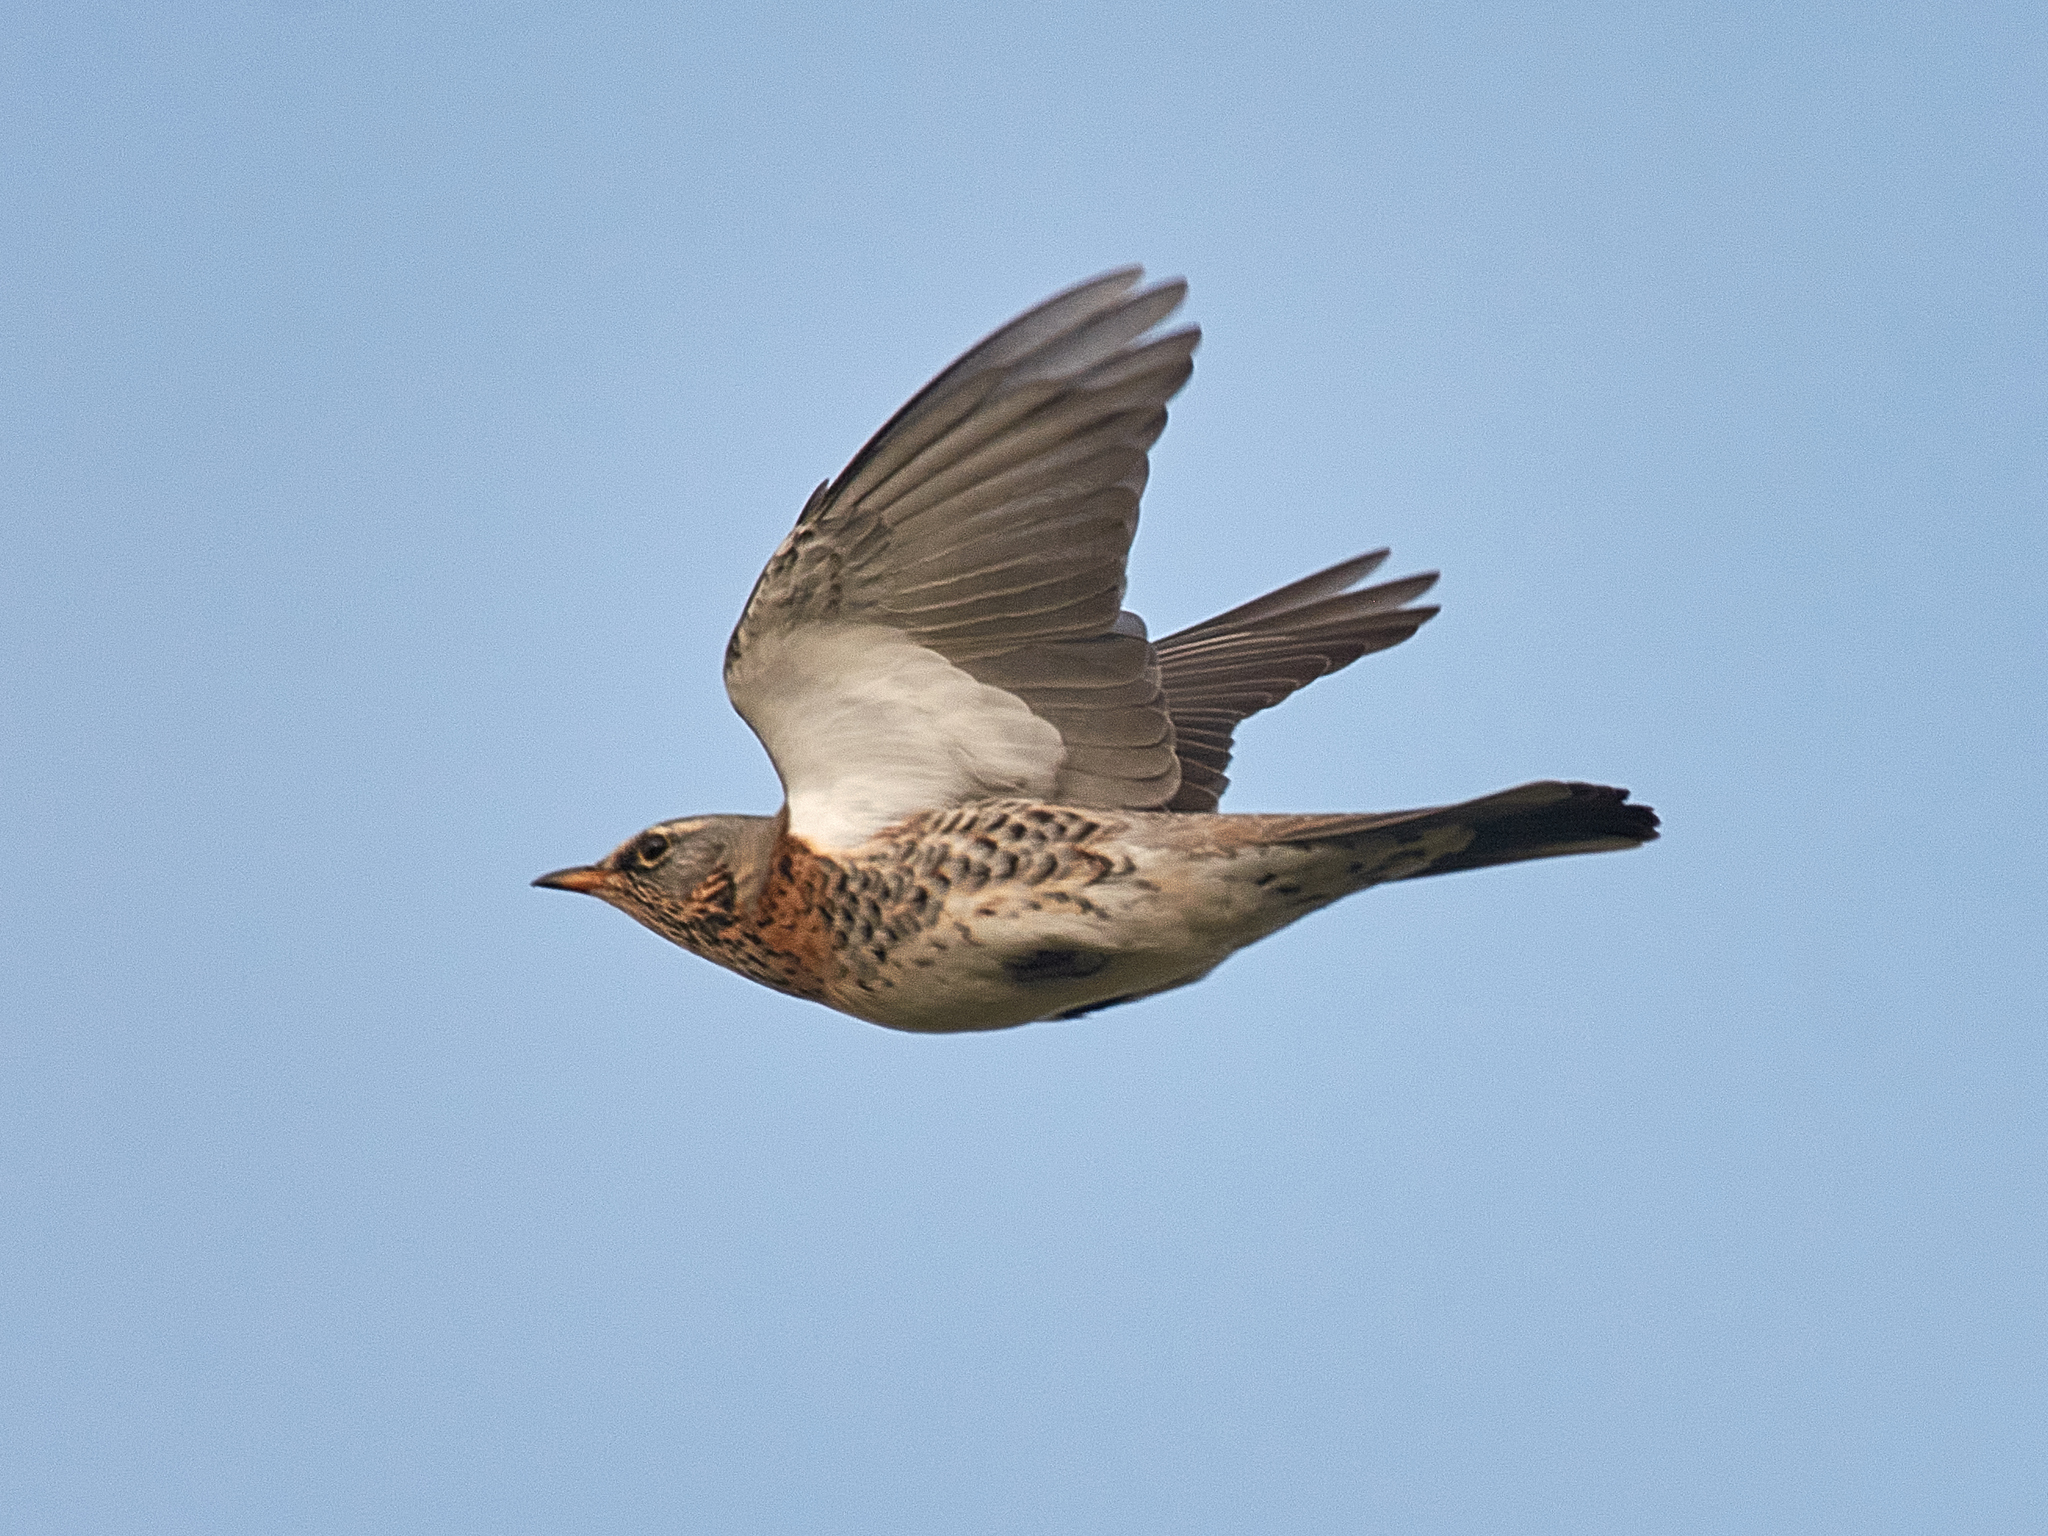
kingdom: Animalia
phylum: Chordata
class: Aves
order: Passeriformes
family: Turdidae
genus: Turdus
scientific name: Turdus pilaris
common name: Fieldfare
